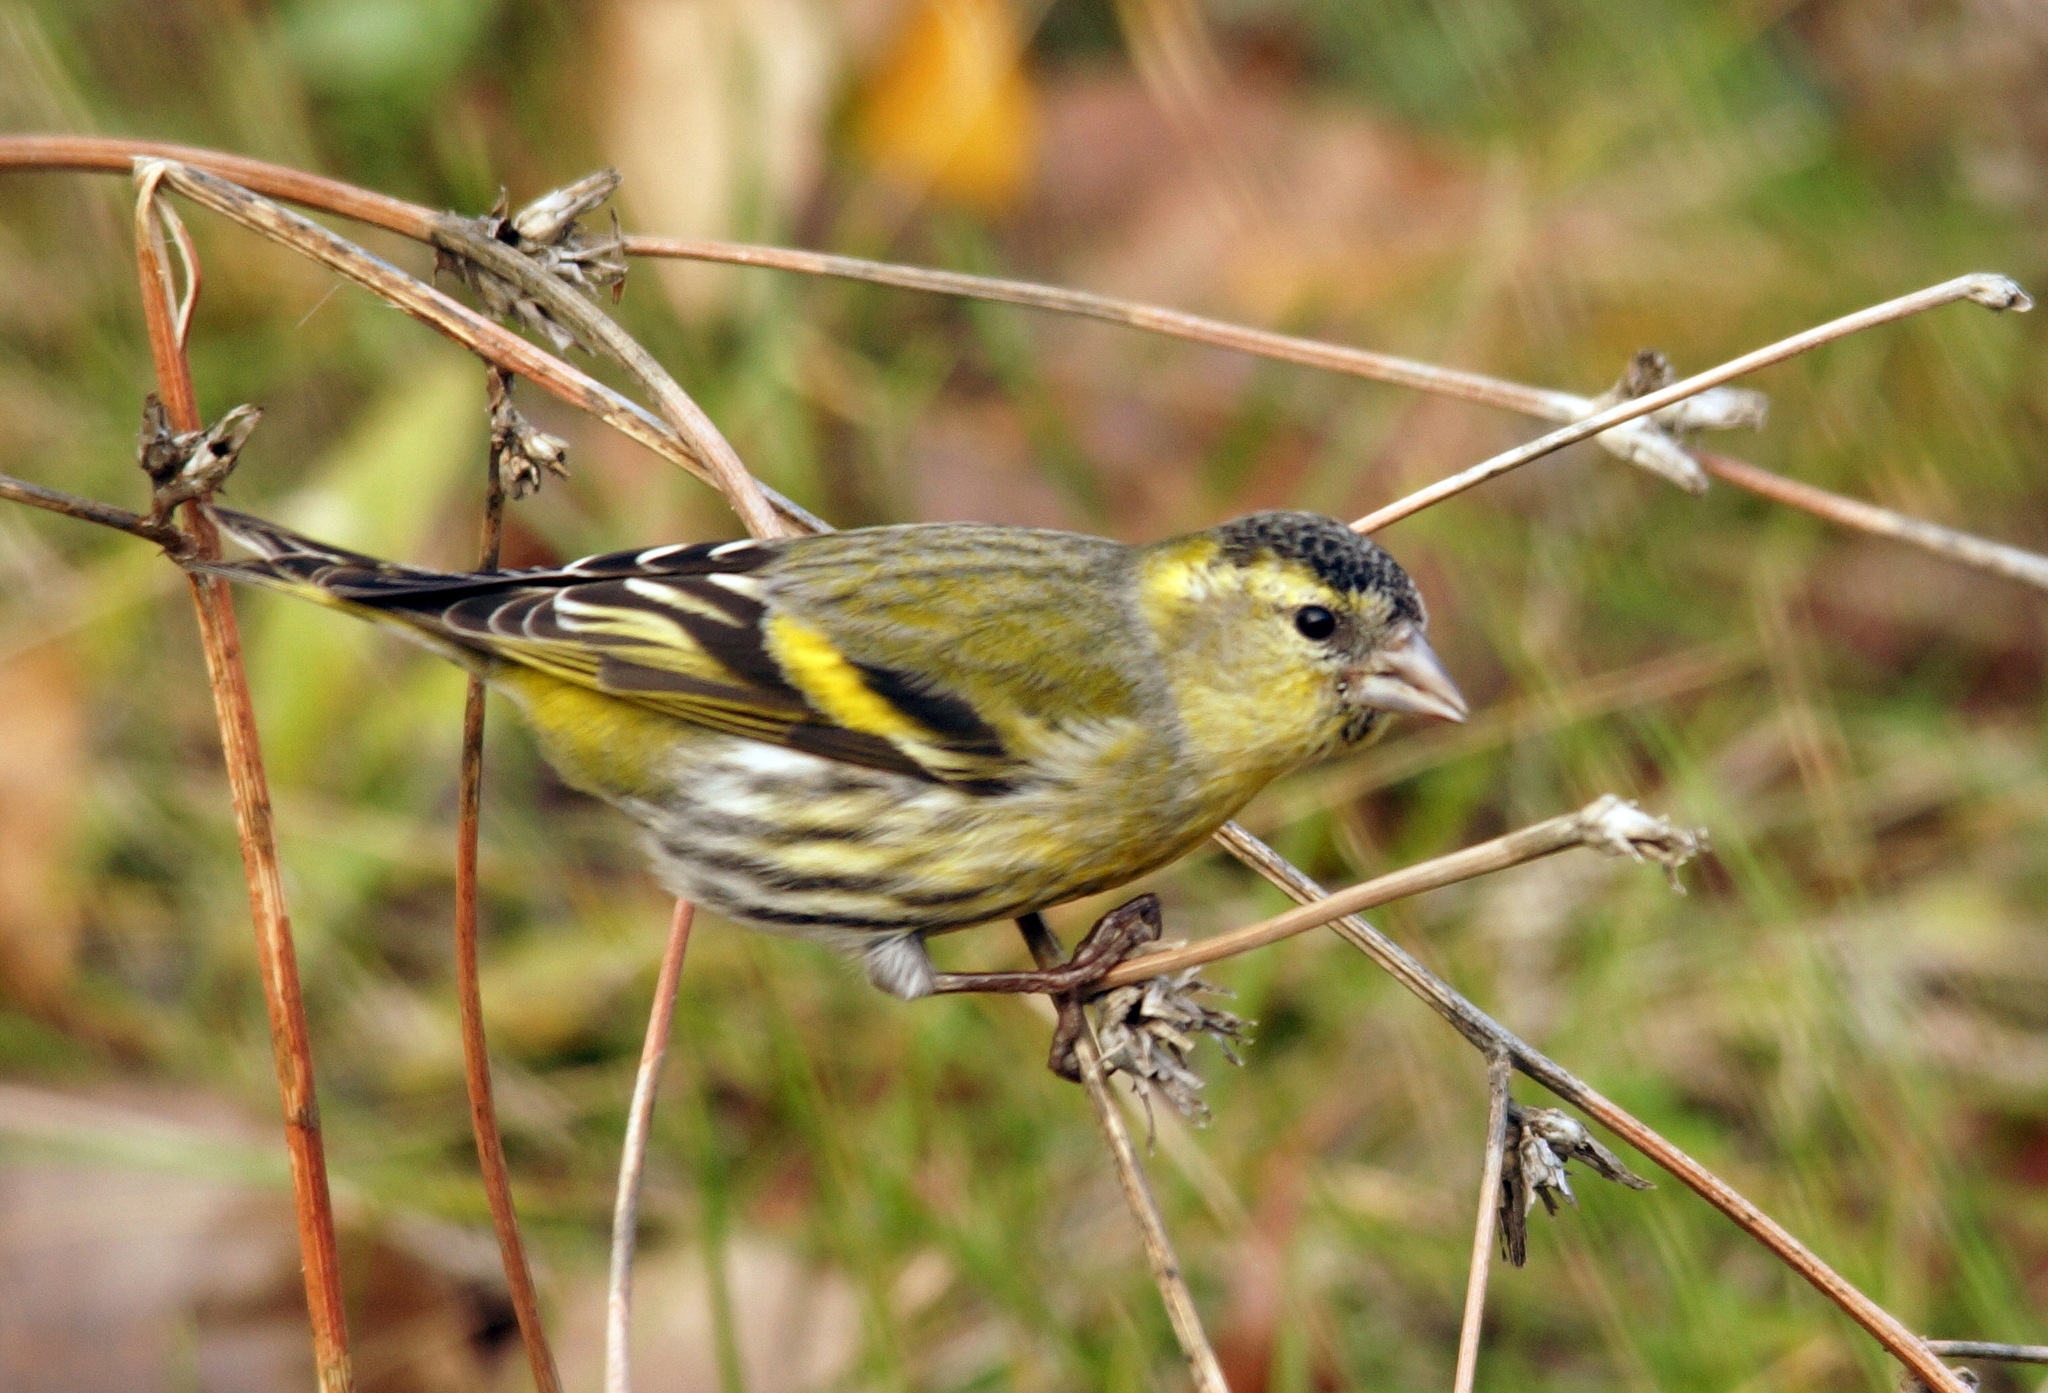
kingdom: Animalia
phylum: Chordata
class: Aves
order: Passeriformes
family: Fringillidae
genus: Spinus
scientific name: Spinus spinus
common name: Eurasian siskin
